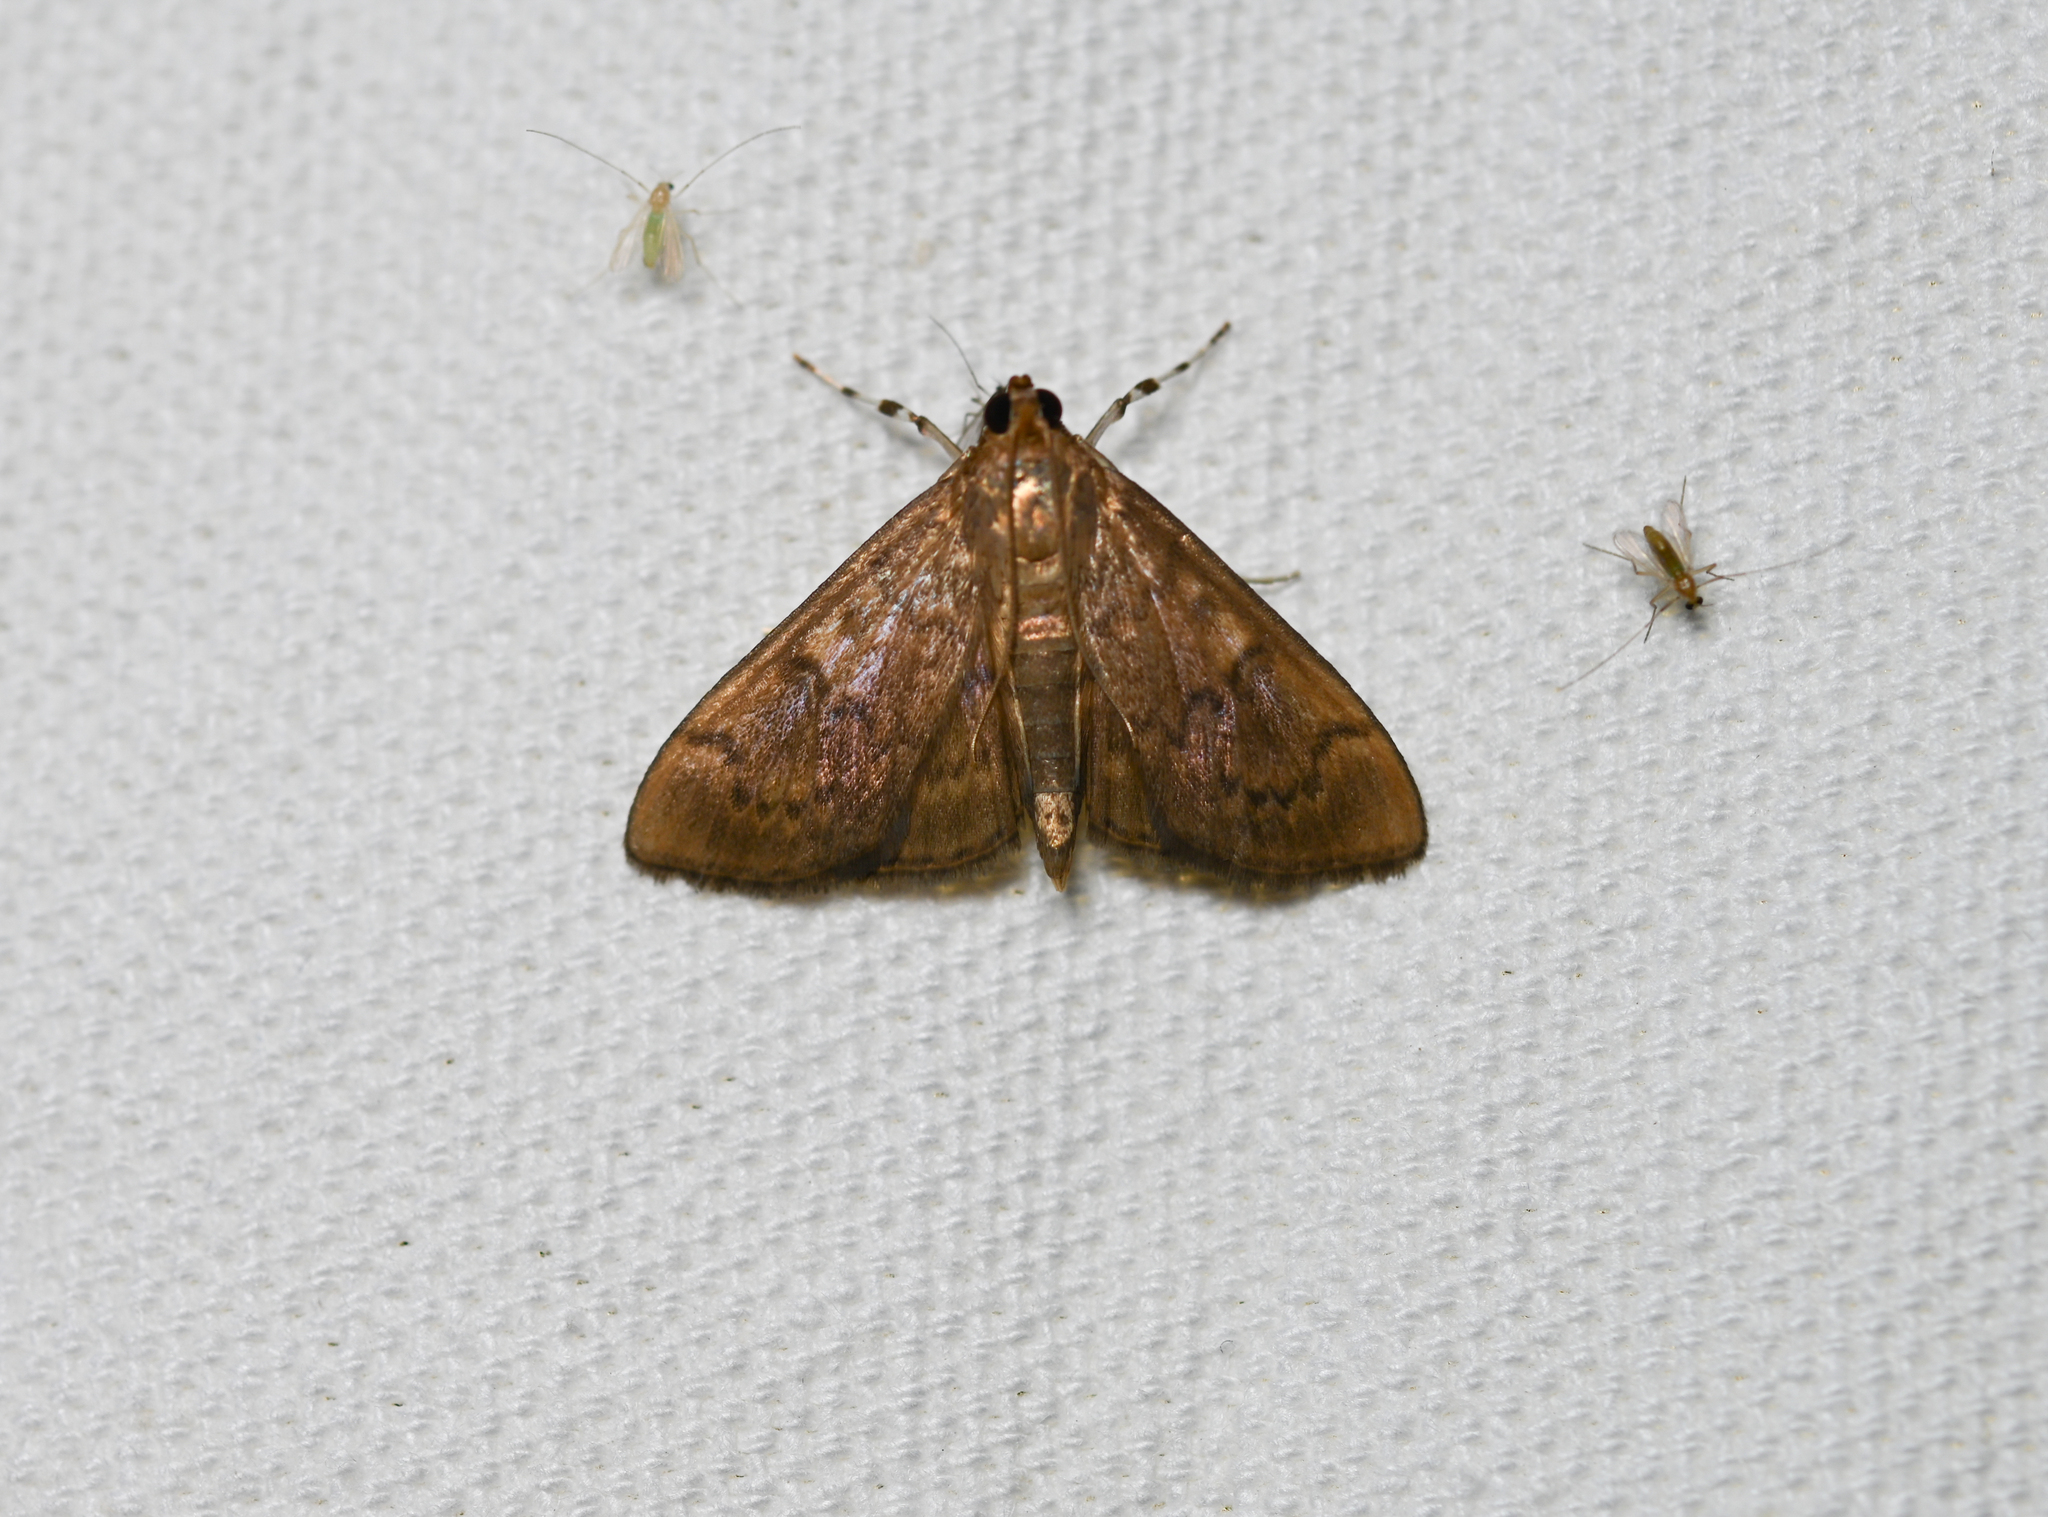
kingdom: Animalia
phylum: Arthropoda
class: Insecta
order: Lepidoptera
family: Crambidae
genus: Syllepte
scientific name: Syllepte obscuralis
